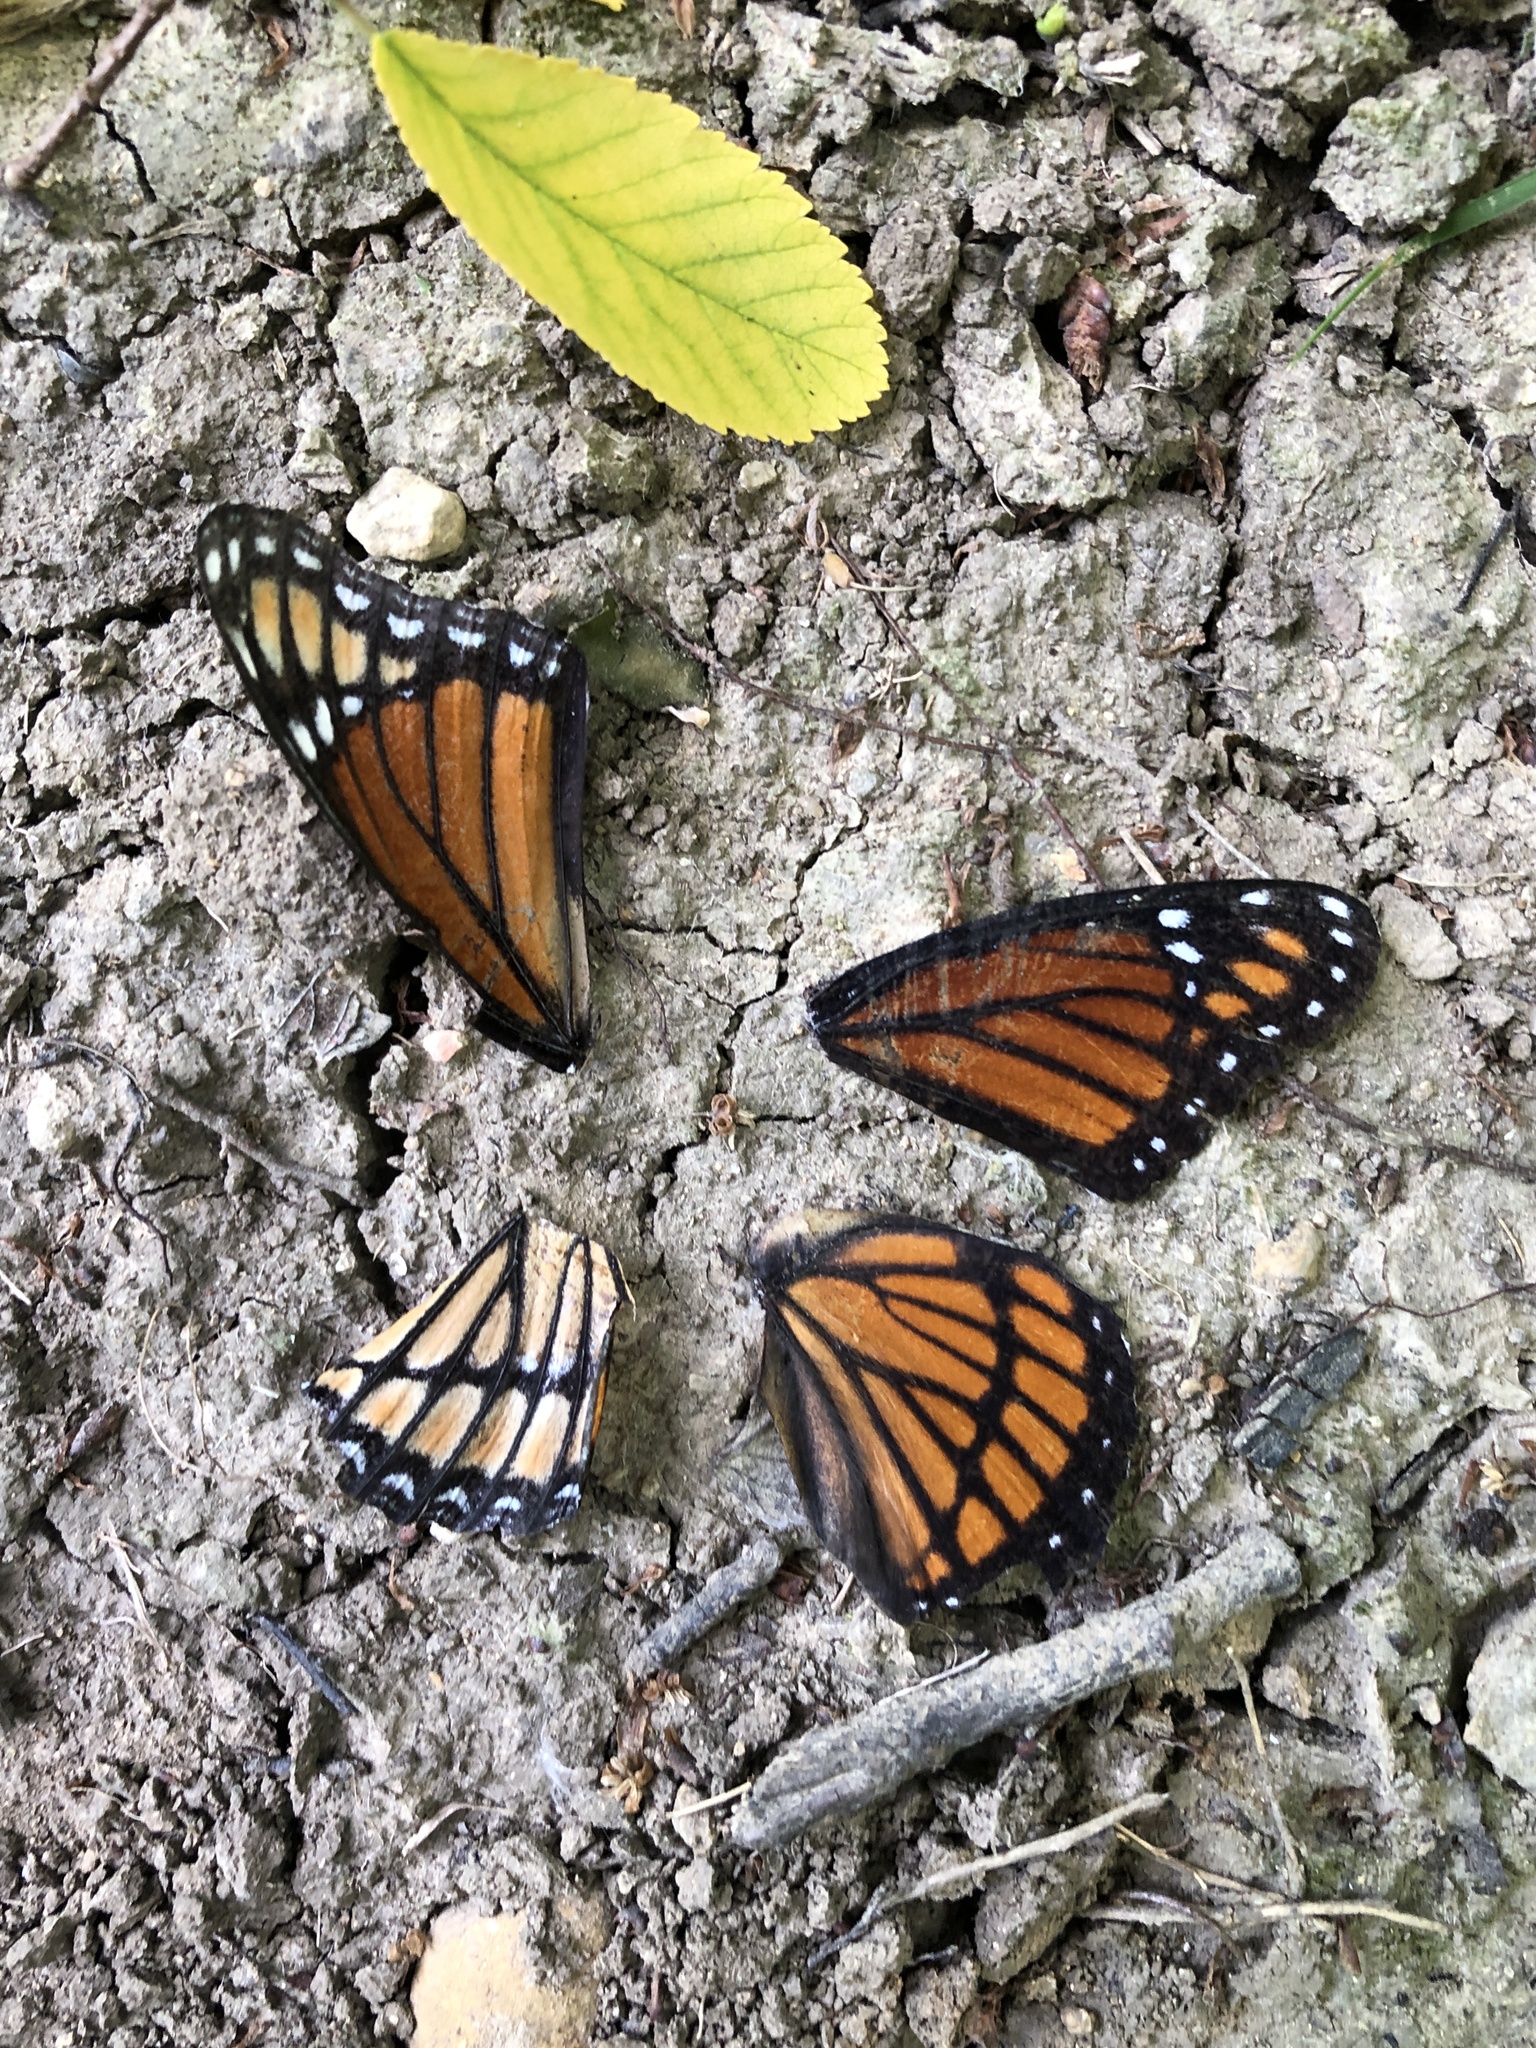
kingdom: Animalia
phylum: Arthropoda
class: Insecta
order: Lepidoptera
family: Nymphalidae
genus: Limenitis
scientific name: Limenitis archippus
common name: Viceroy
